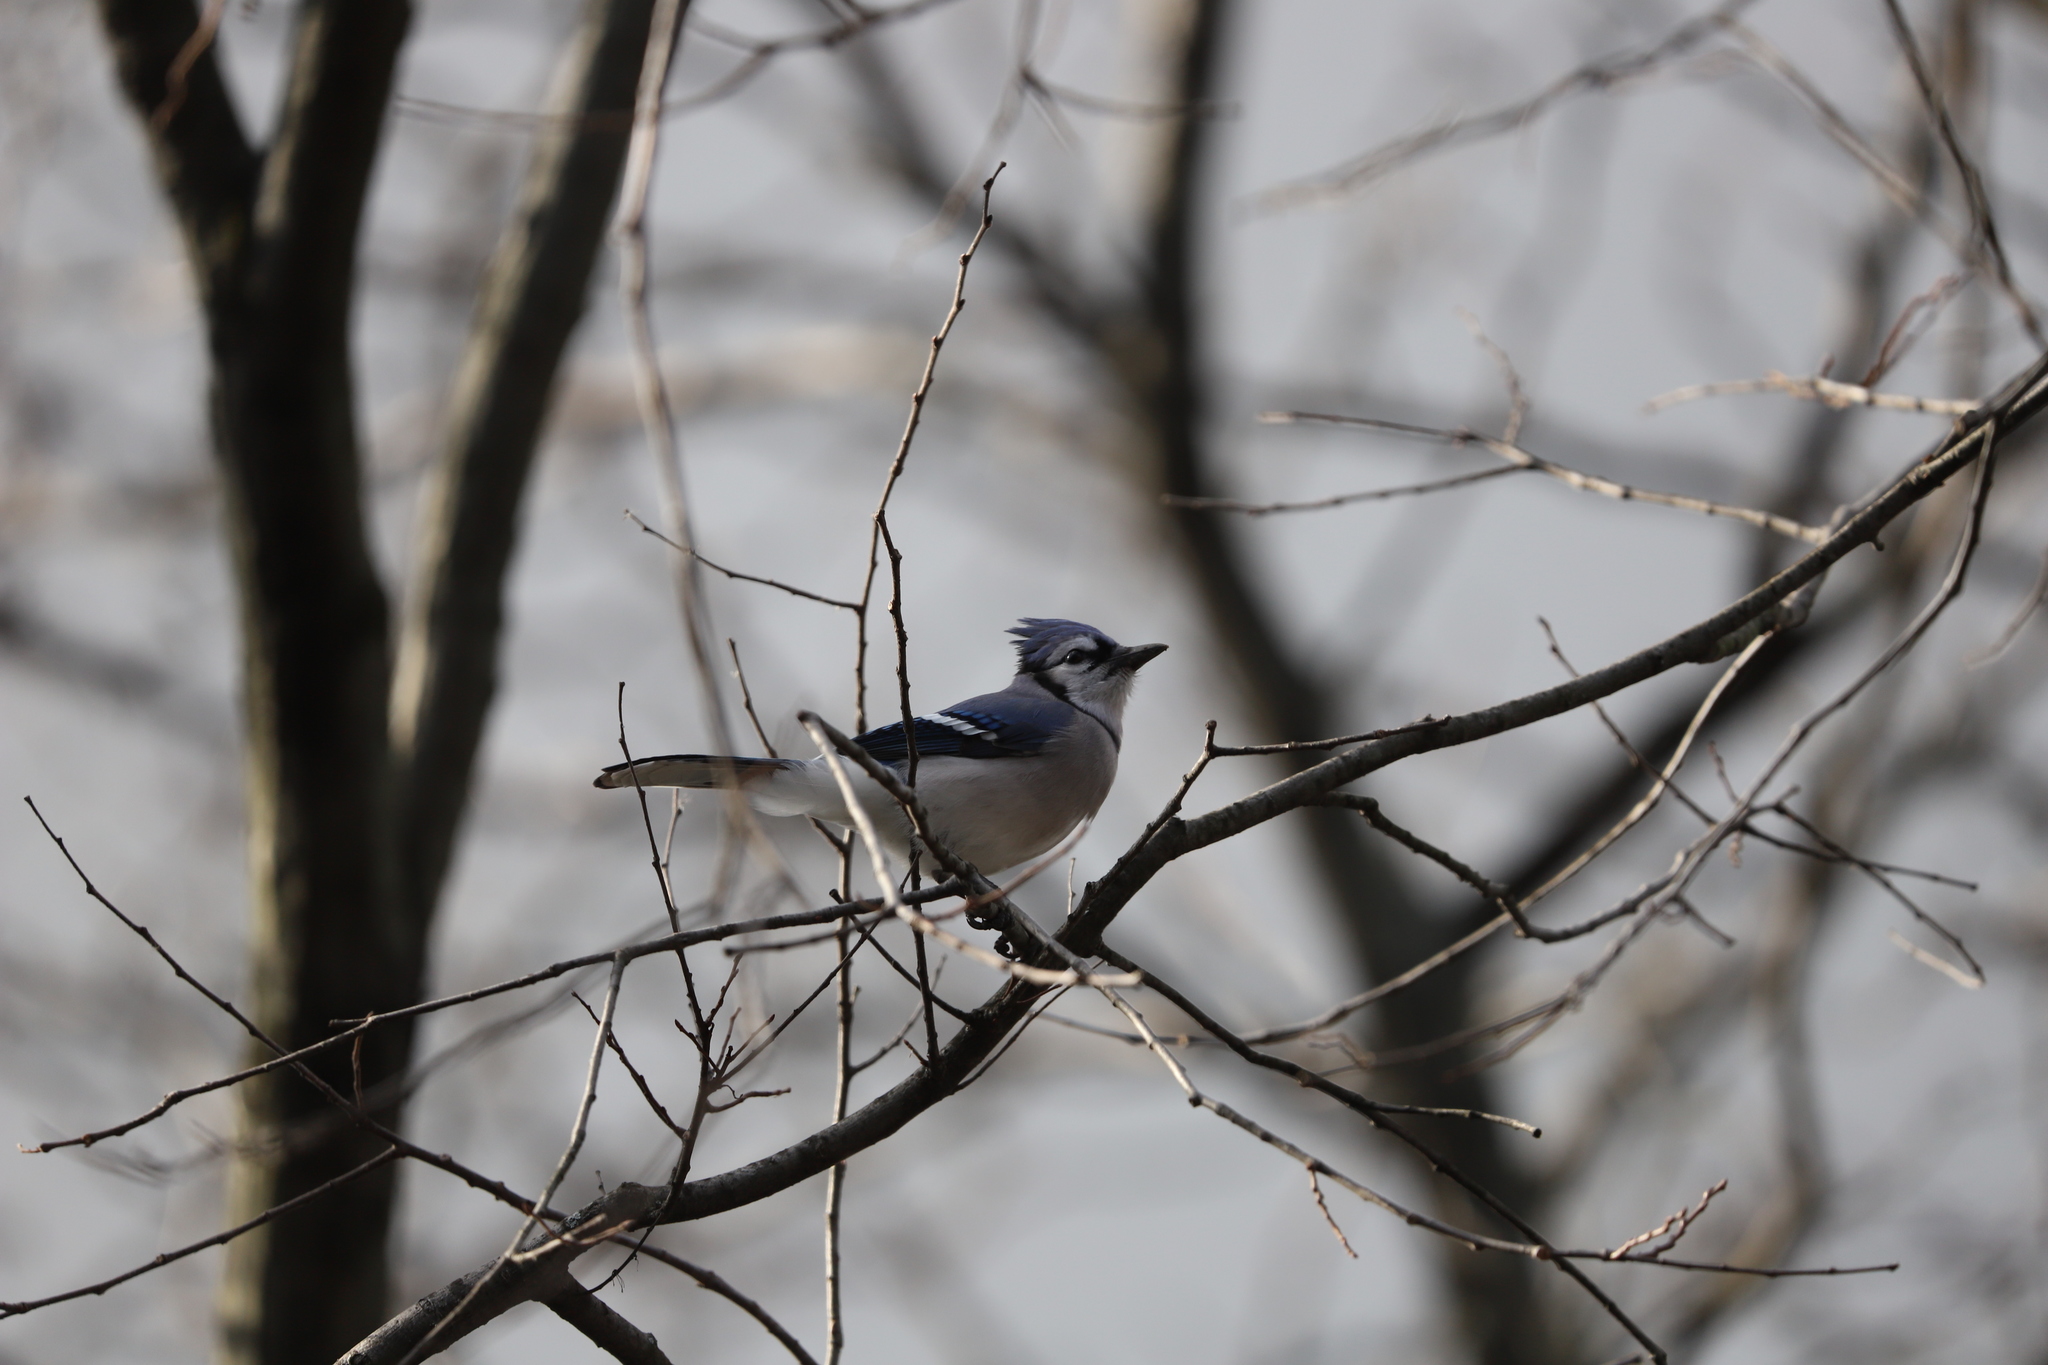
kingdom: Animalia
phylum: Chordata
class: Aves
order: Passeriformes
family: Corvidae
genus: Cyanocitta
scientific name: Cyanocitta cristata
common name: Blue jay
